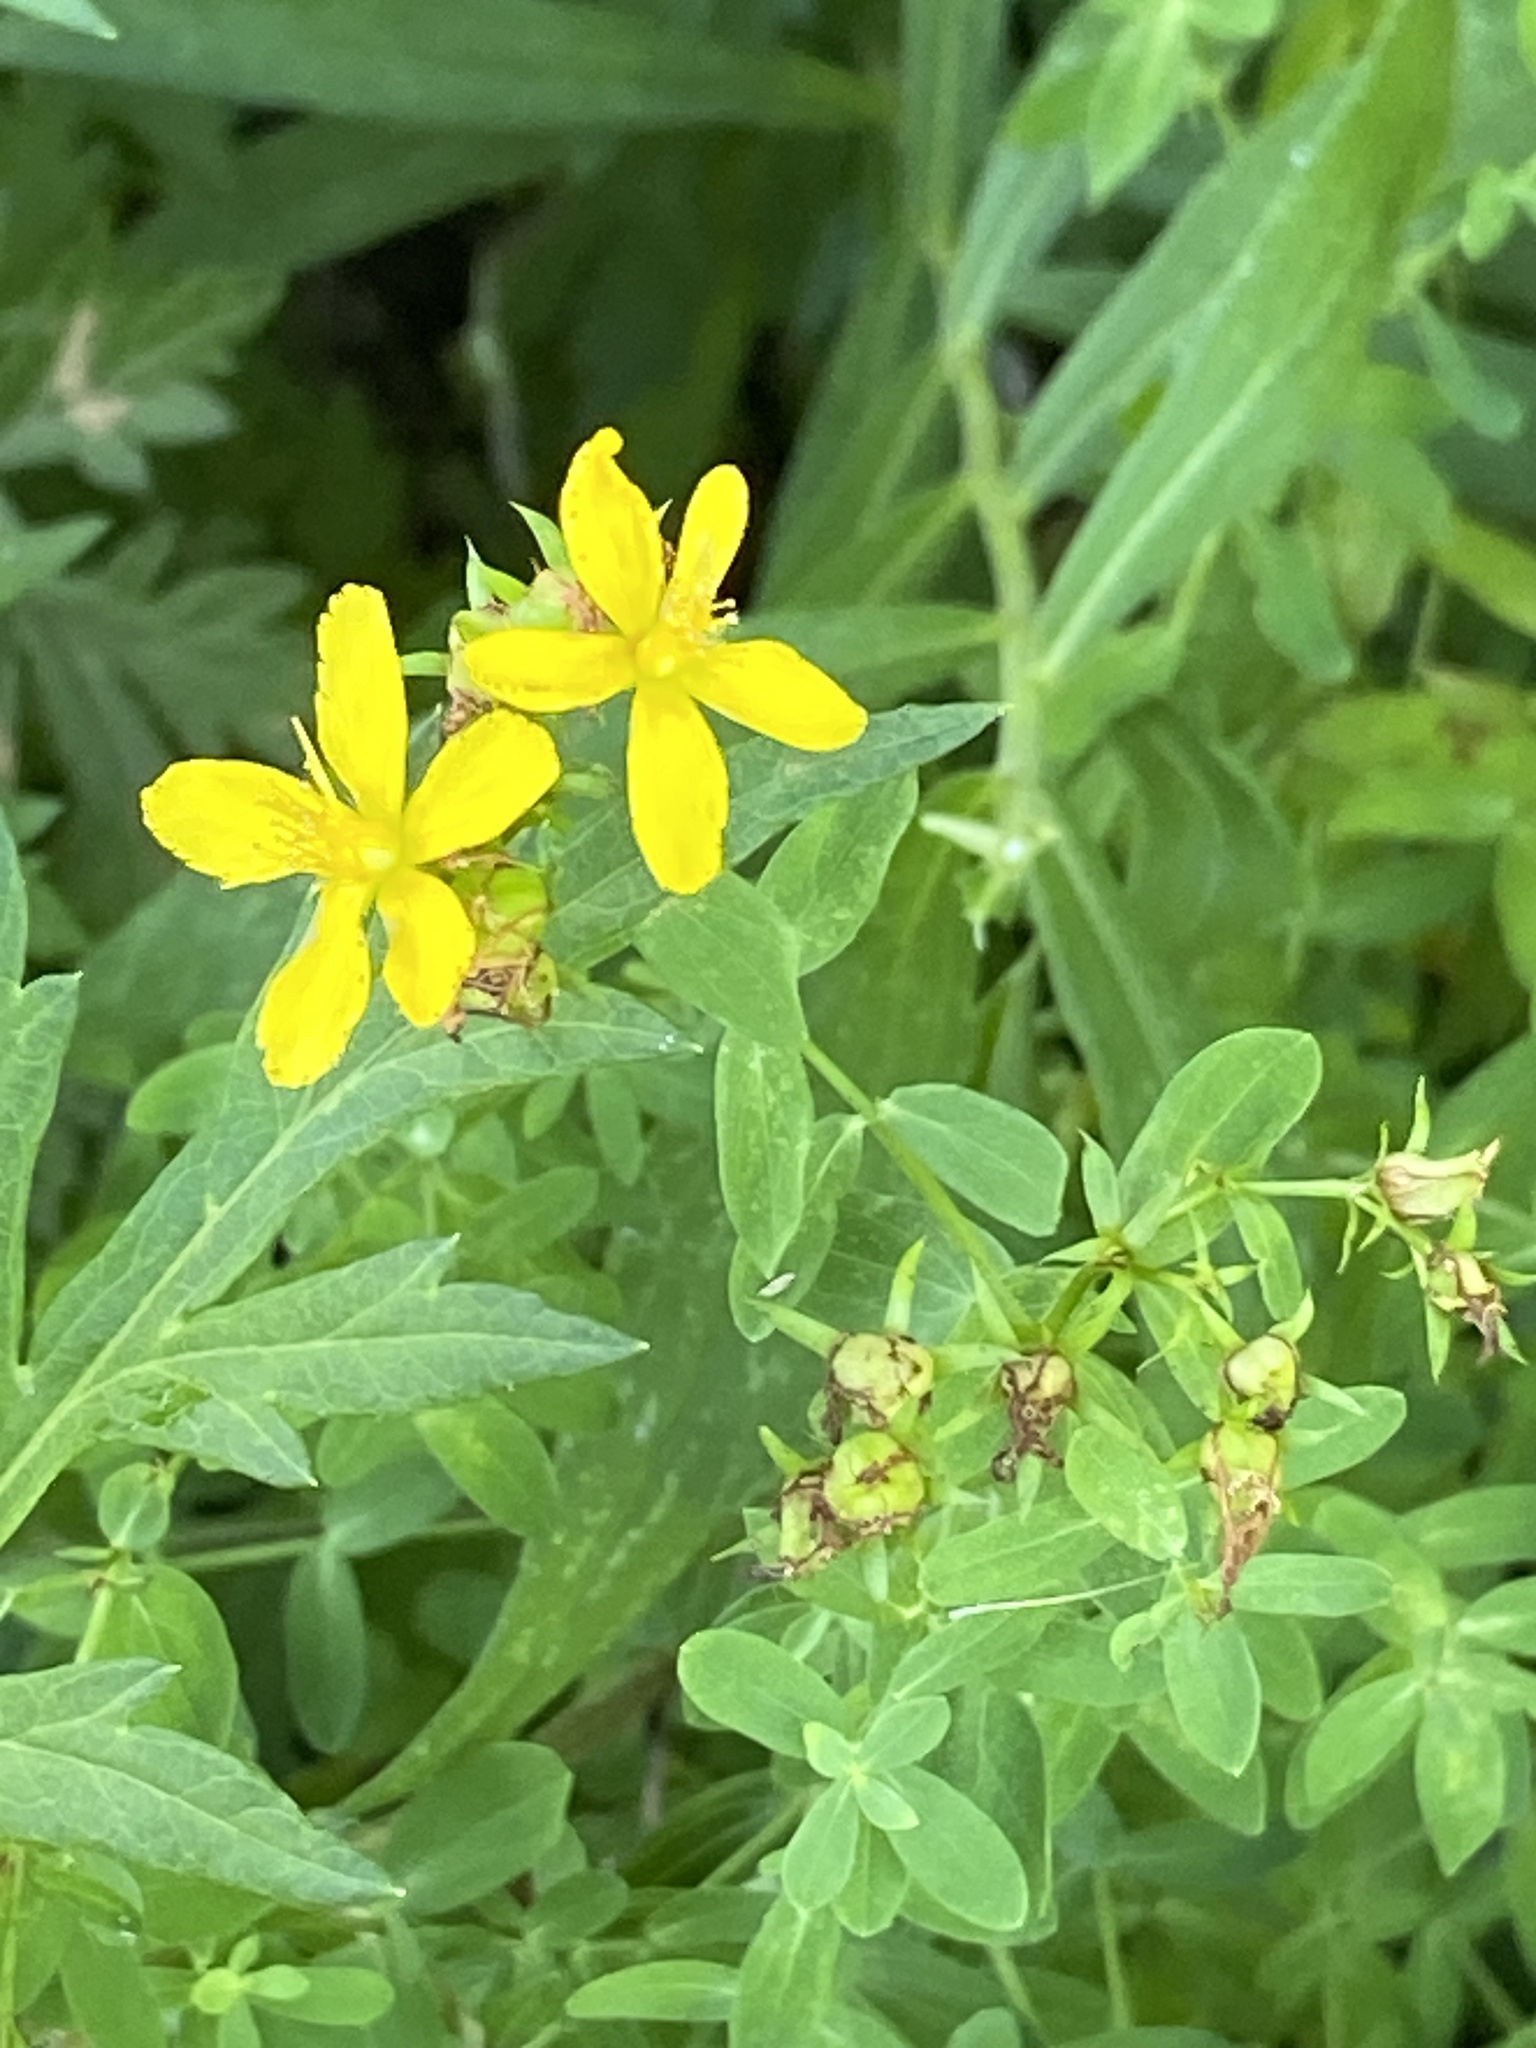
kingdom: Plantae
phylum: Tracheophyta
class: Magnoliopsida
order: Malpighiales
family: Hypericaceae
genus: Hypericum
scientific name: Hypericum perforatum
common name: Common st. johnswort
